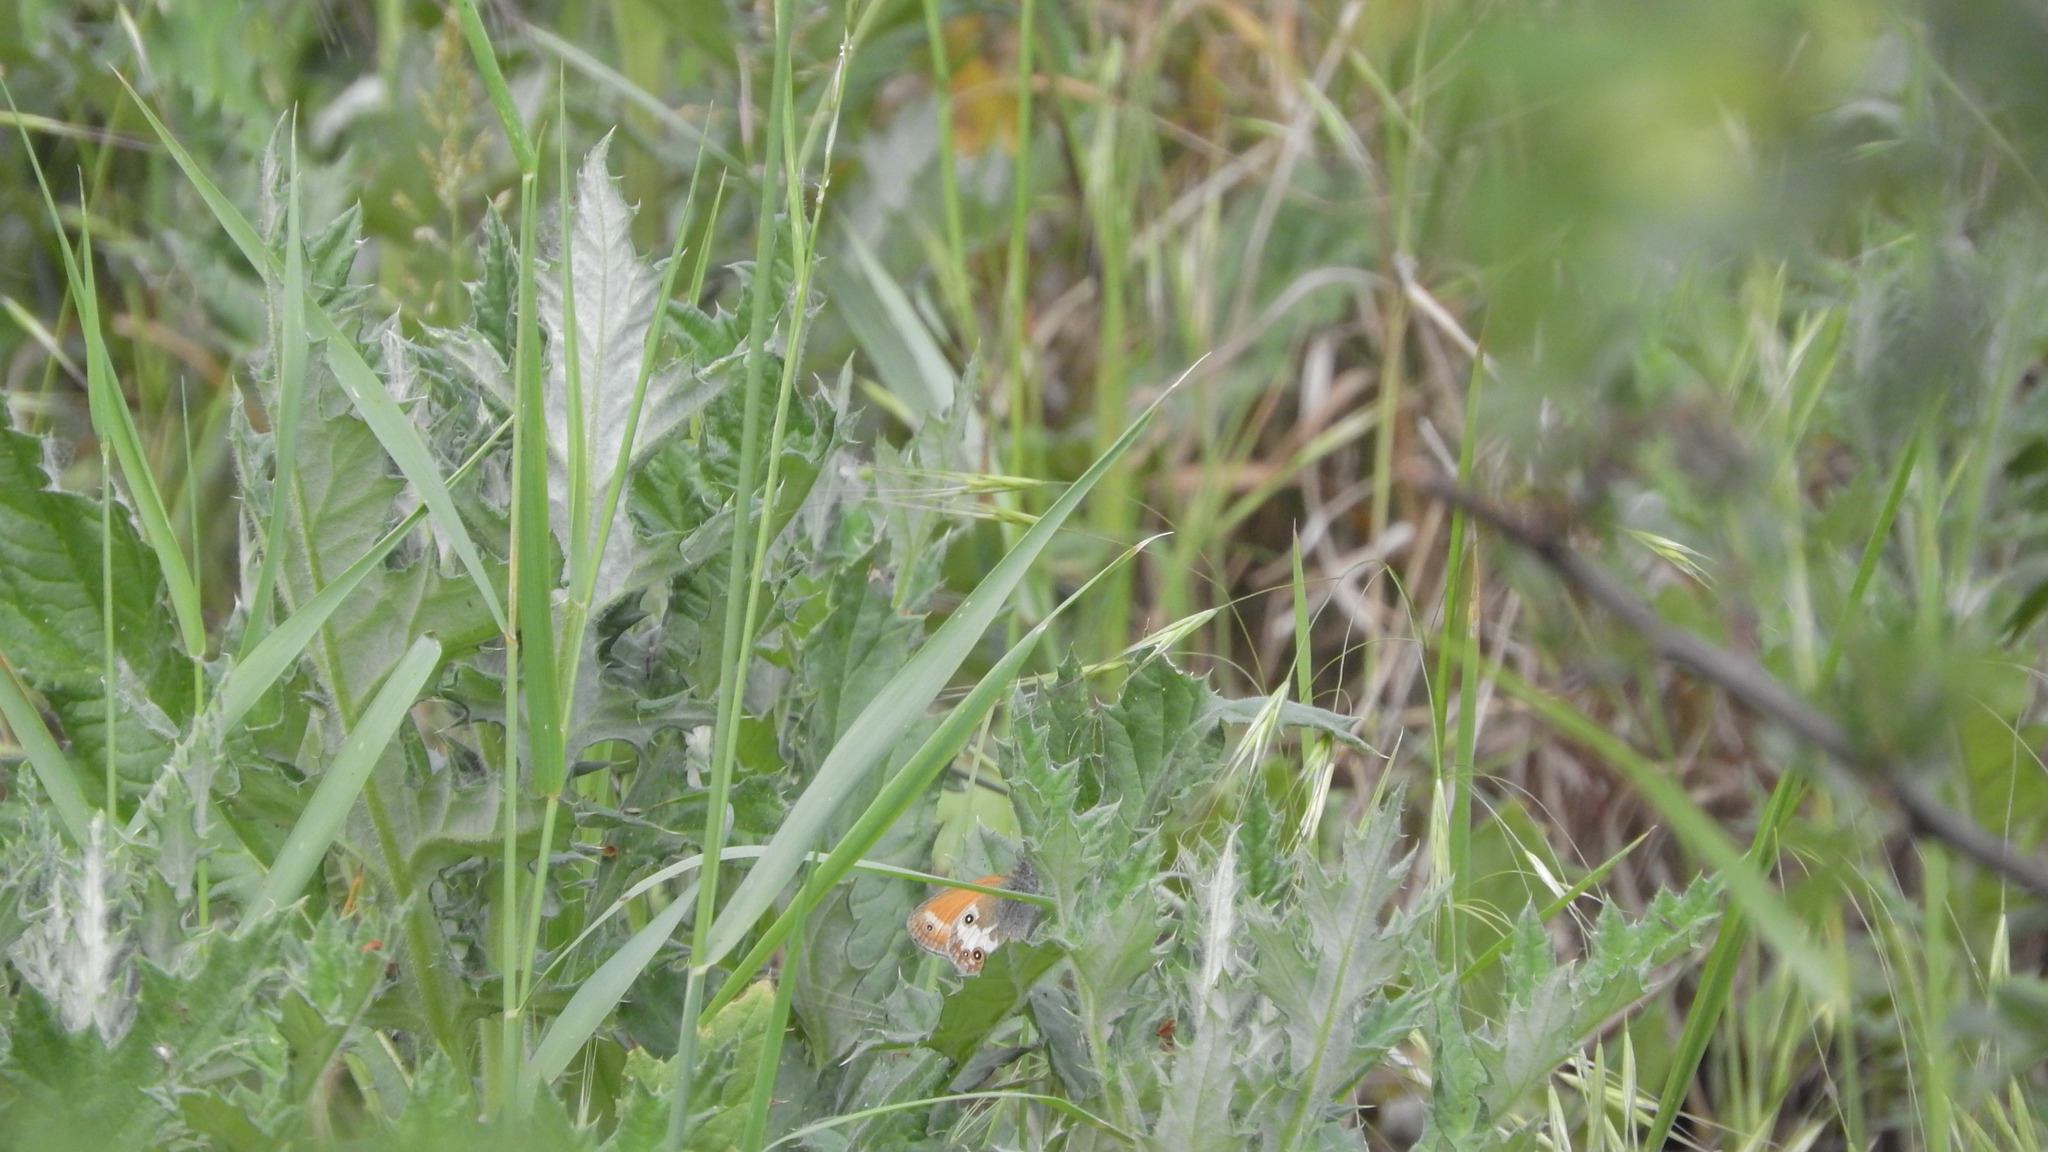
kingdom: Animalia
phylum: Arthropoda
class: Insecta
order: Lepidoptera
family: Nymphalidae
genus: Coenonympha
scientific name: Coenonympha arcania
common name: Pearly heath
